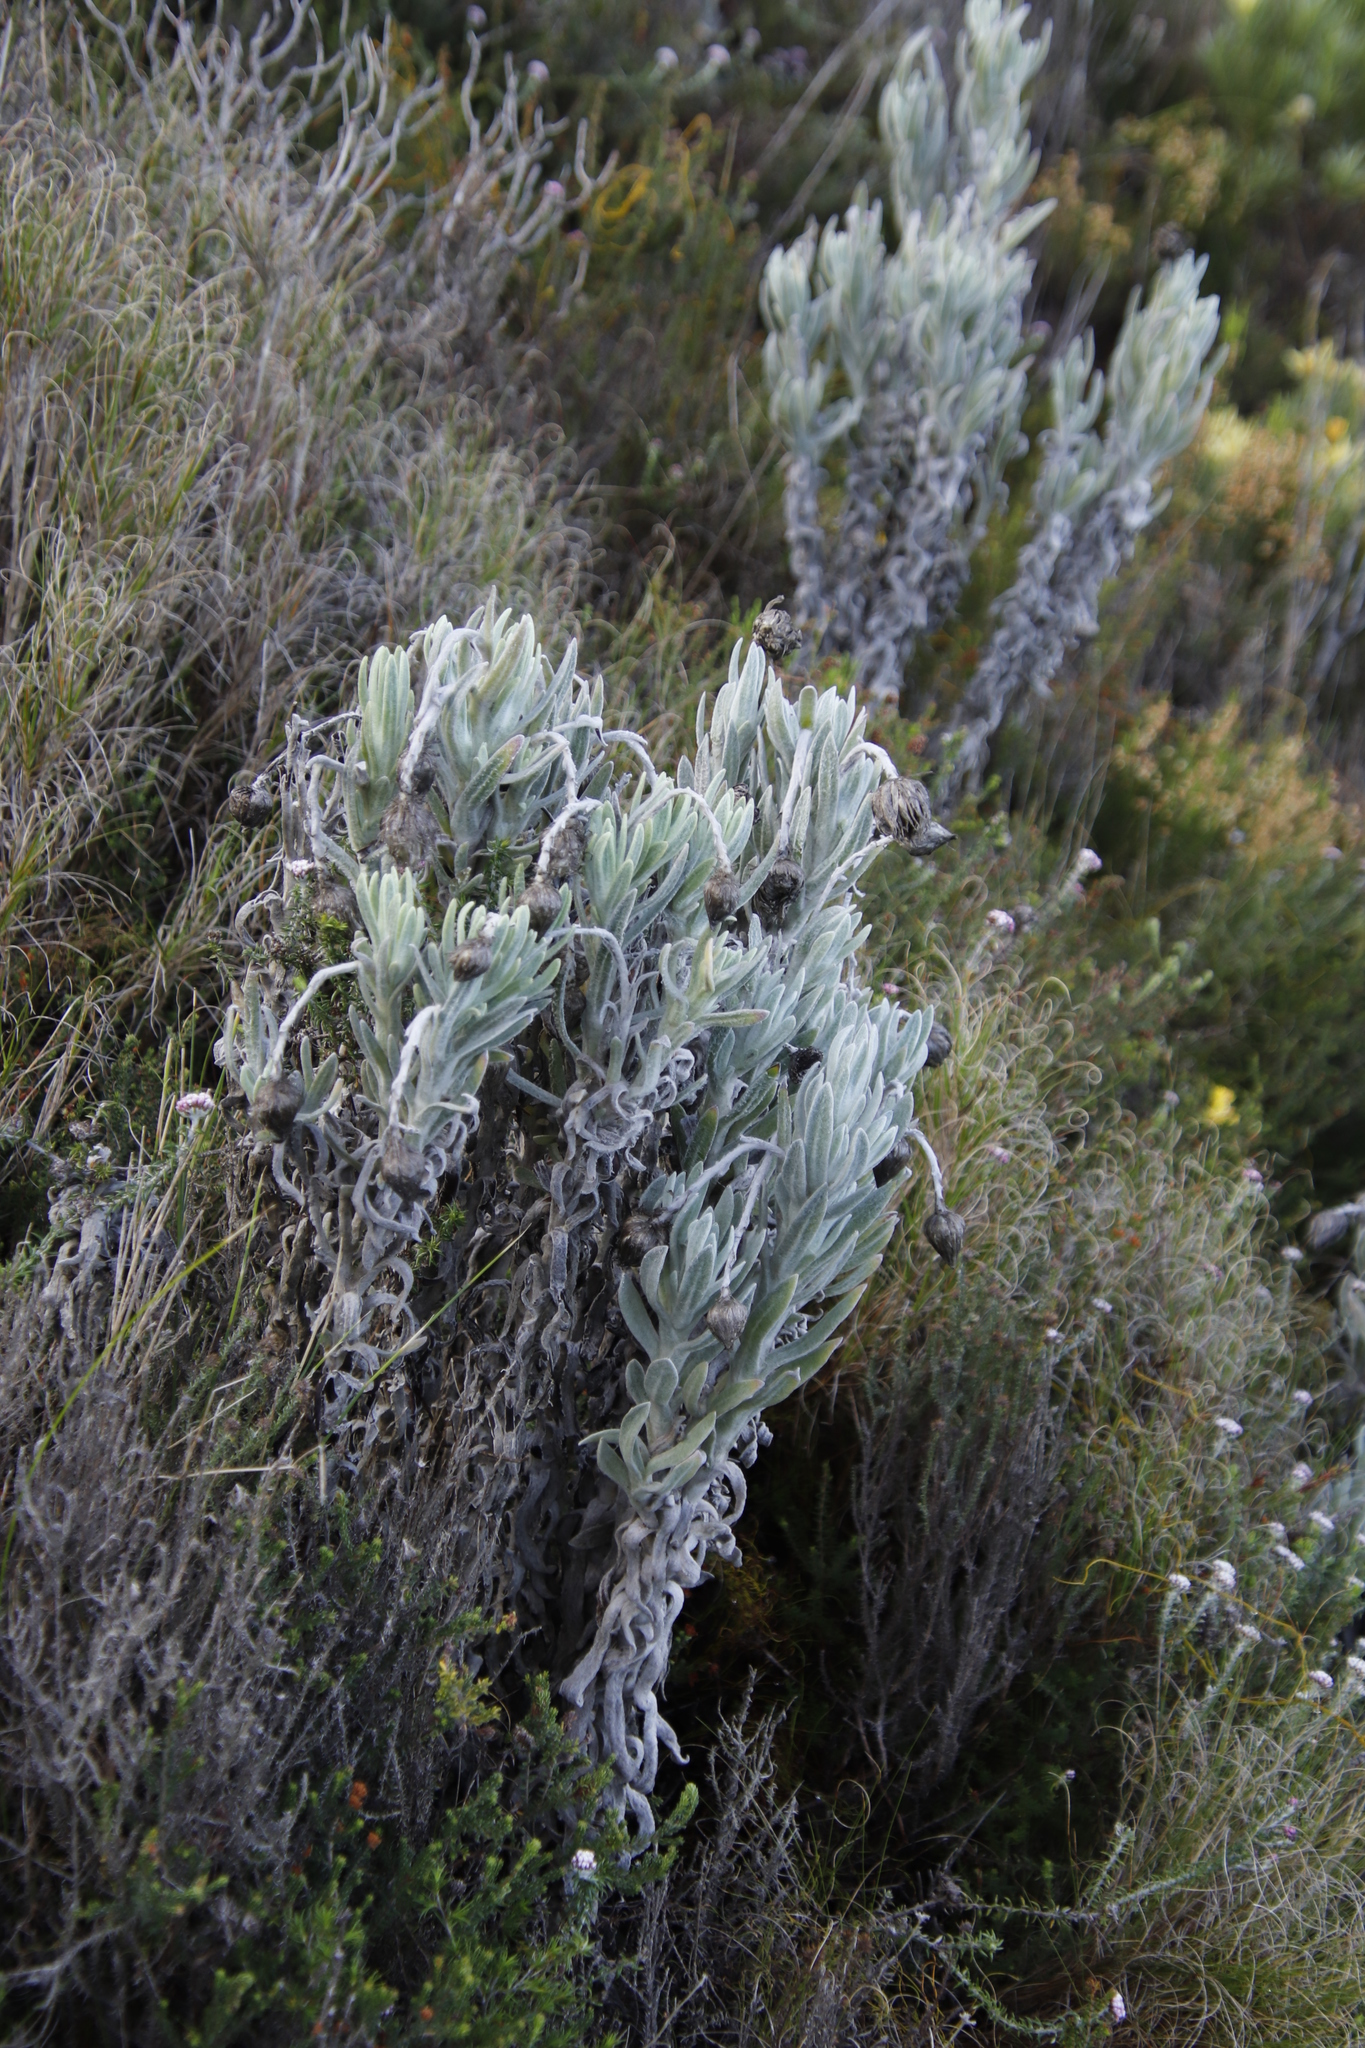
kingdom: Plantae
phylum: Tracheophyta
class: Magnoliopsida
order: Asterales
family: Asteraceae
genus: Syncarpha
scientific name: Syncarpha vestita
